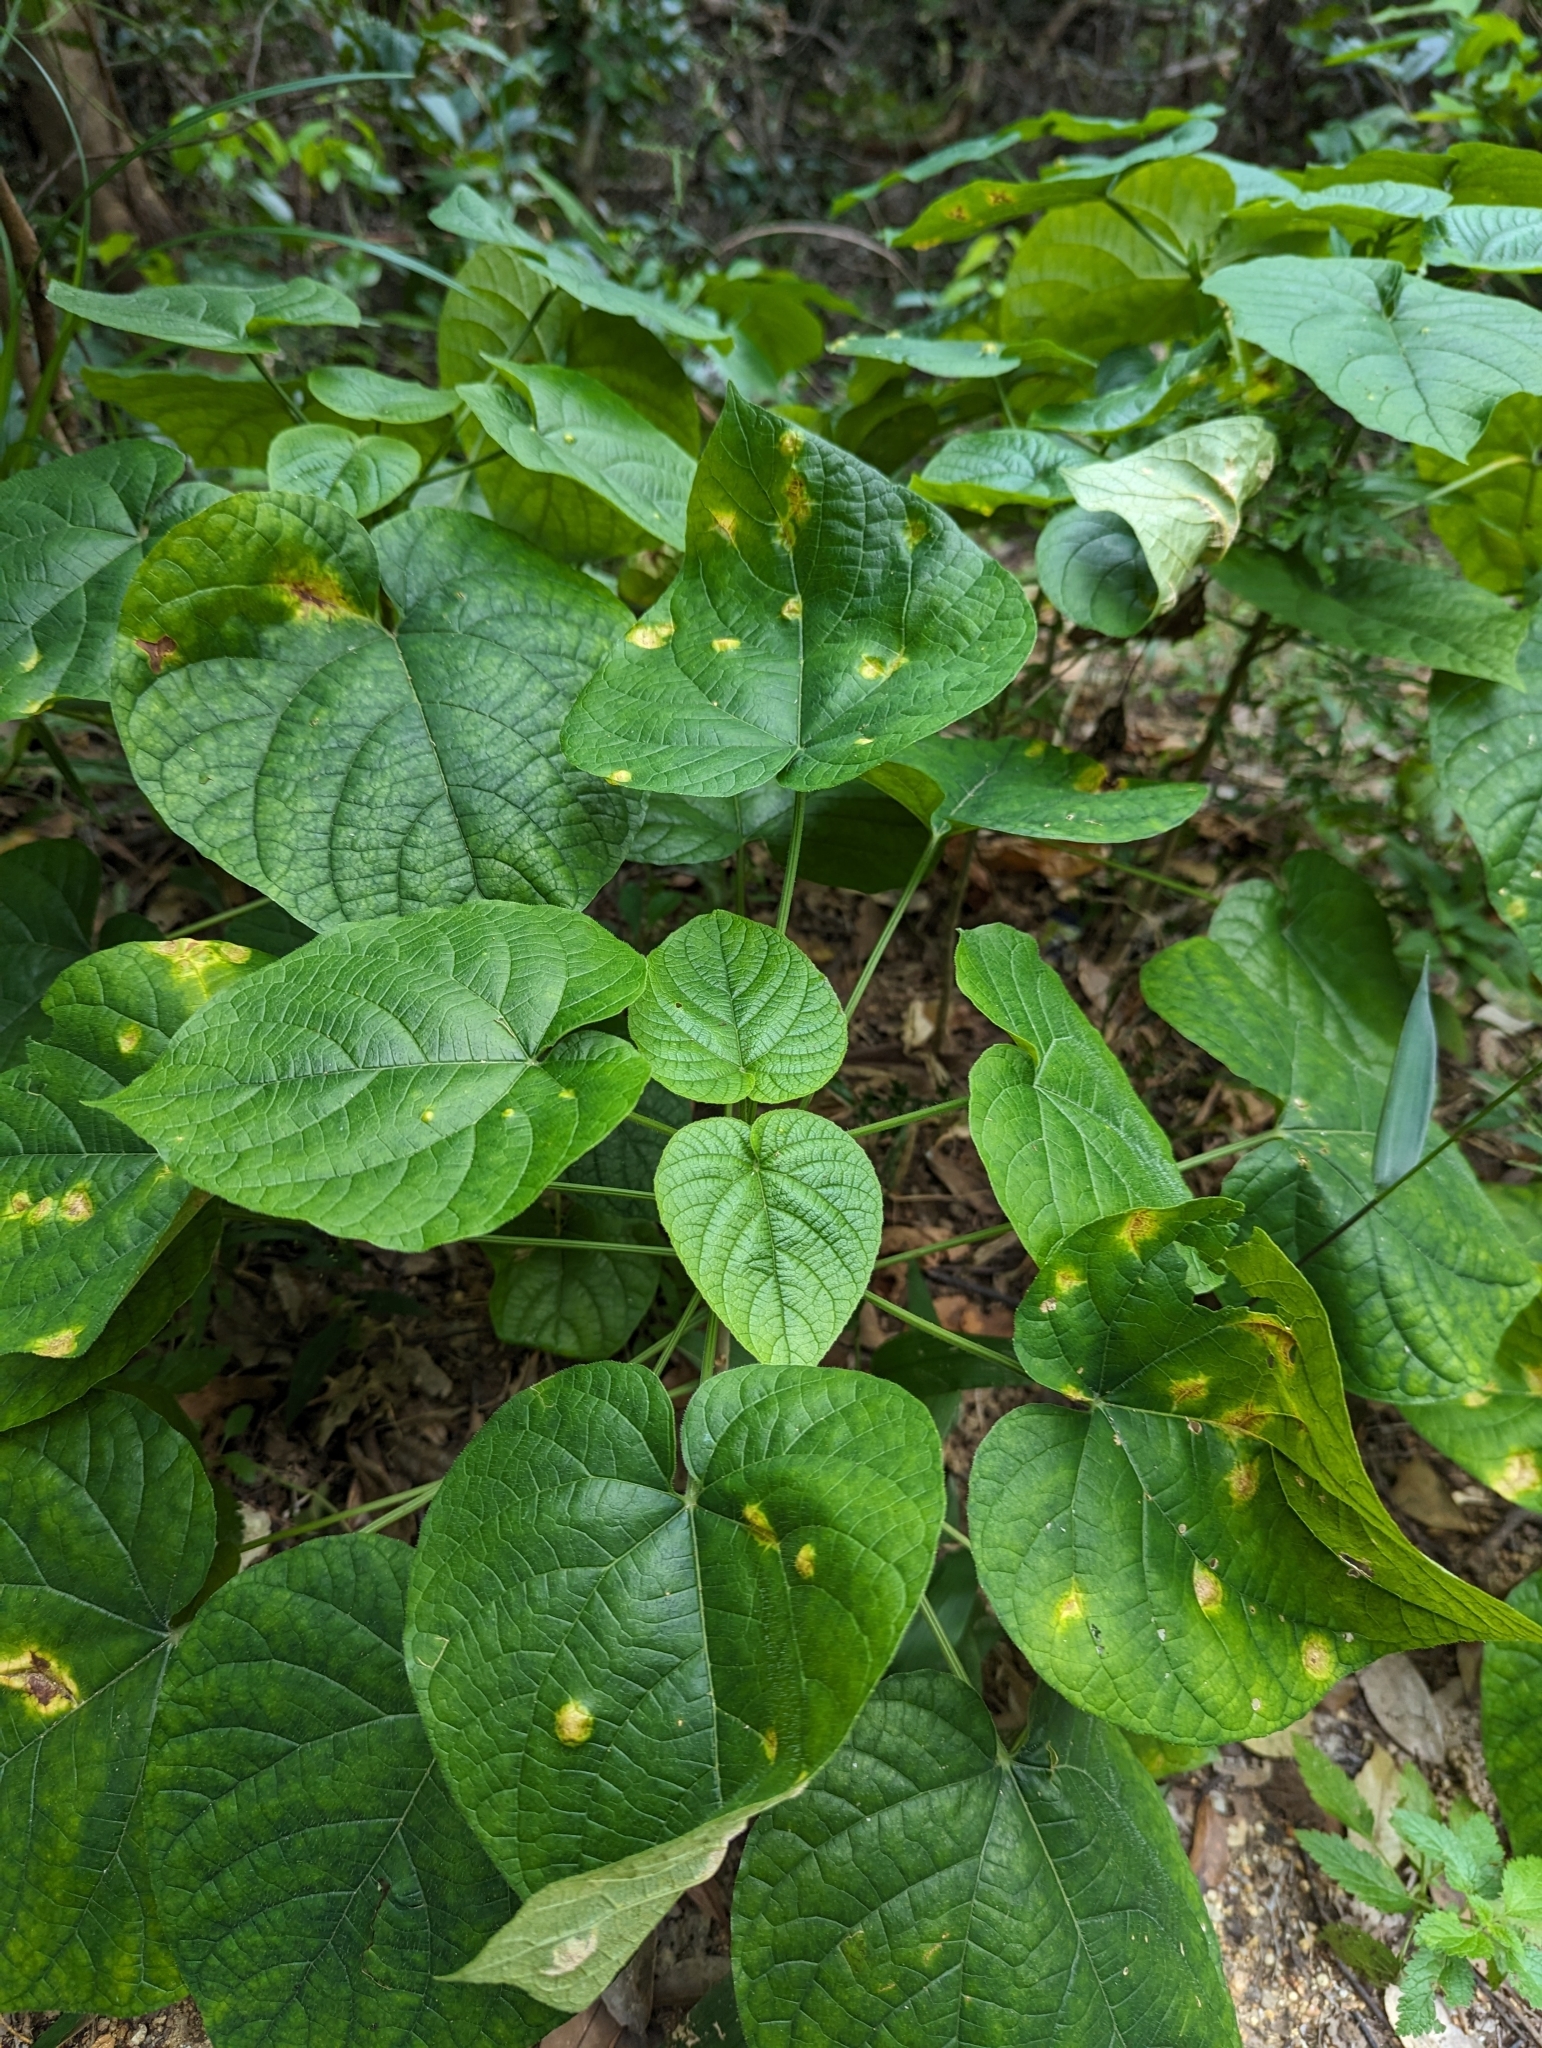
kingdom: Plantae
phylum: Tracheophyta
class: Magnoliopsida
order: Lamiales
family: Lamiaceae
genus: Clerodendrum
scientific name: Clerodendrum japonicum
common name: Japanese glorybower
